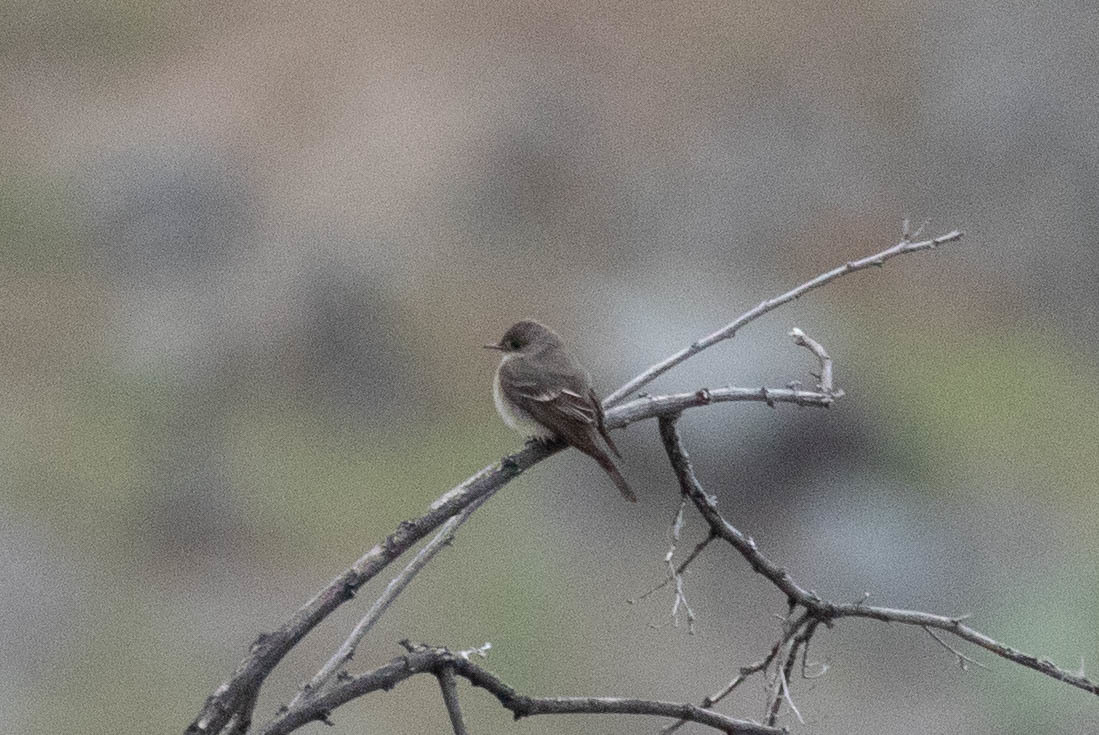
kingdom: Animalia
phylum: Chordata
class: Aves
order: Passeriformes
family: Tyrannidae
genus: Contopus
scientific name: Contopus sordidulus
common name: Western wood-pewee
